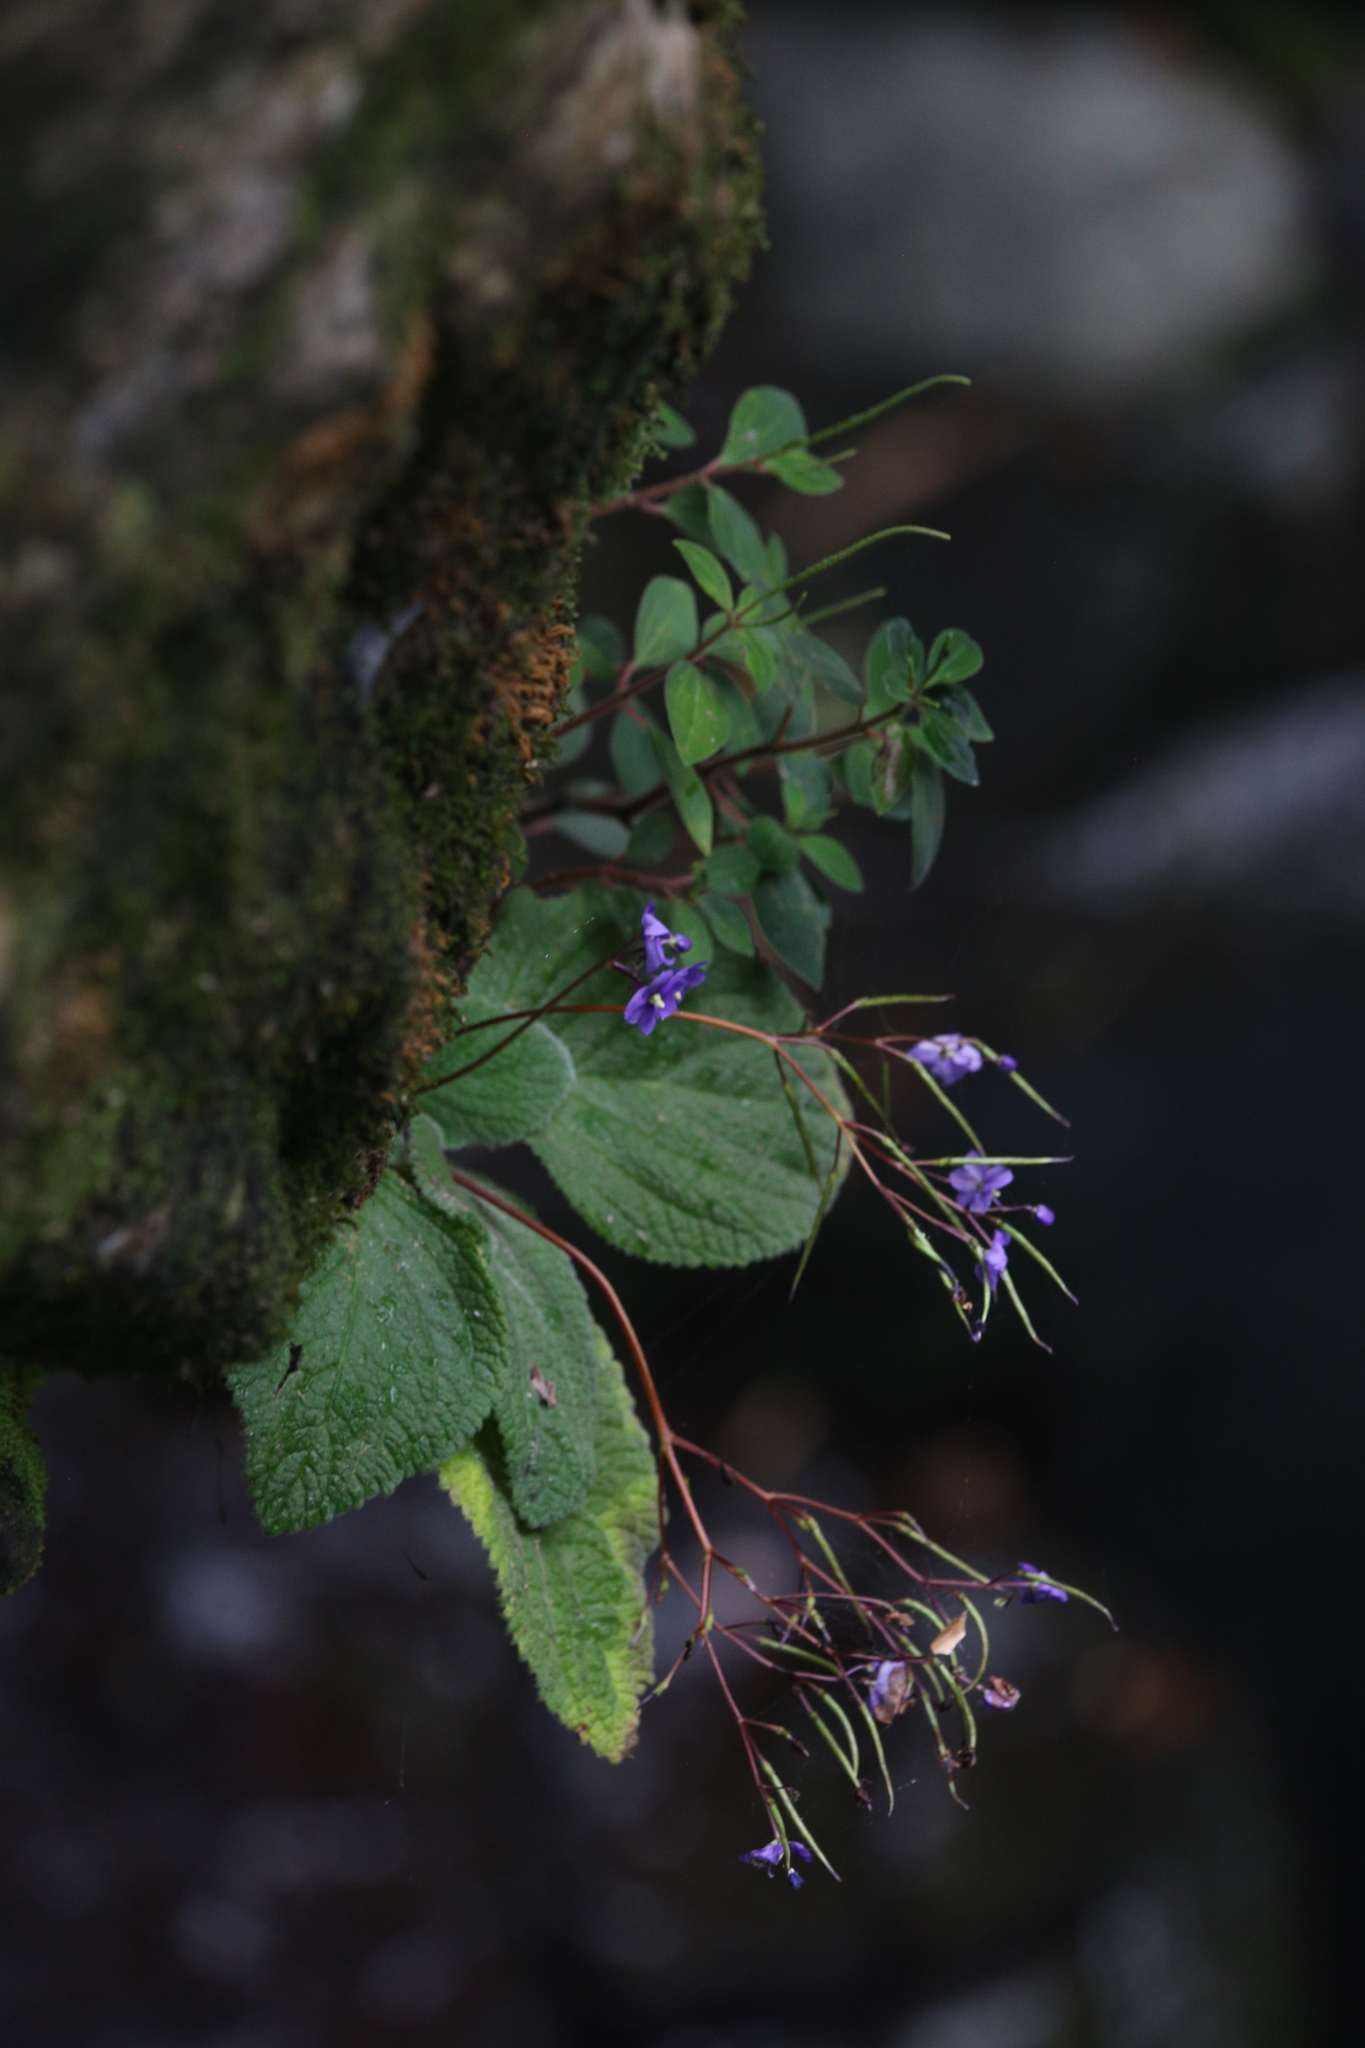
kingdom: Plantae
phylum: Tracheophyta
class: Magnoliopsida
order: Lamiales
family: Gesneriaceae
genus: Boea
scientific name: Boea hygroscopica
